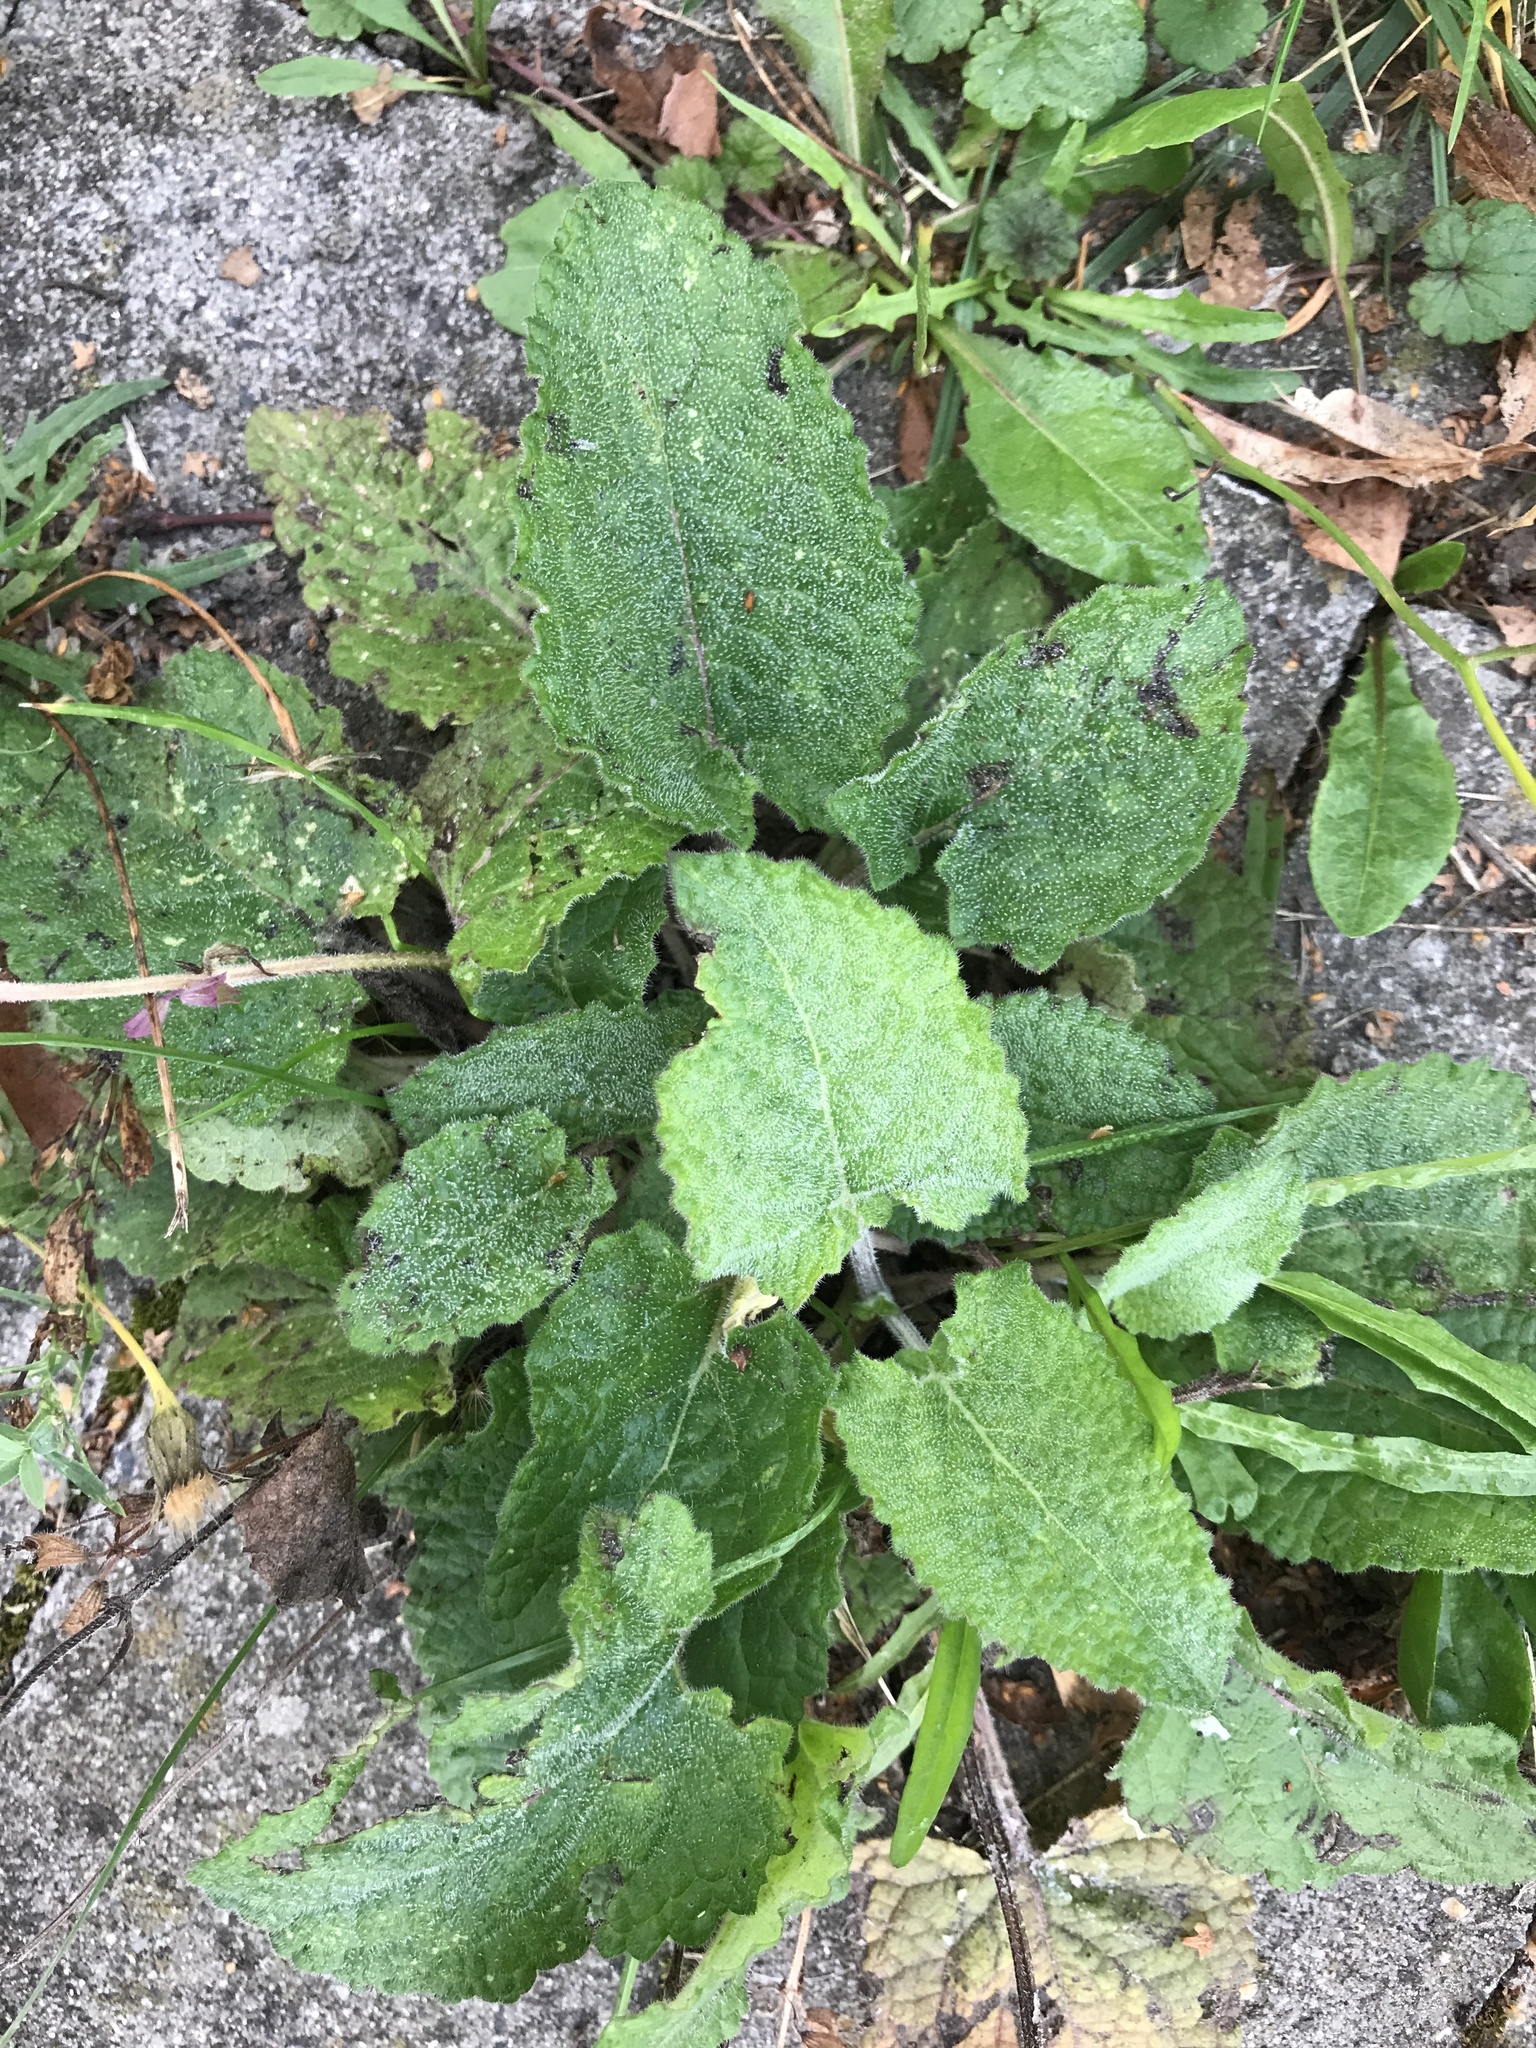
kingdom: Plantae
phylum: Tracheophyta
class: Magnoliopsida
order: Lamiales
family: Lamiaceae
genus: Salvia
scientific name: Salvia pratensis
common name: Meadow sage
